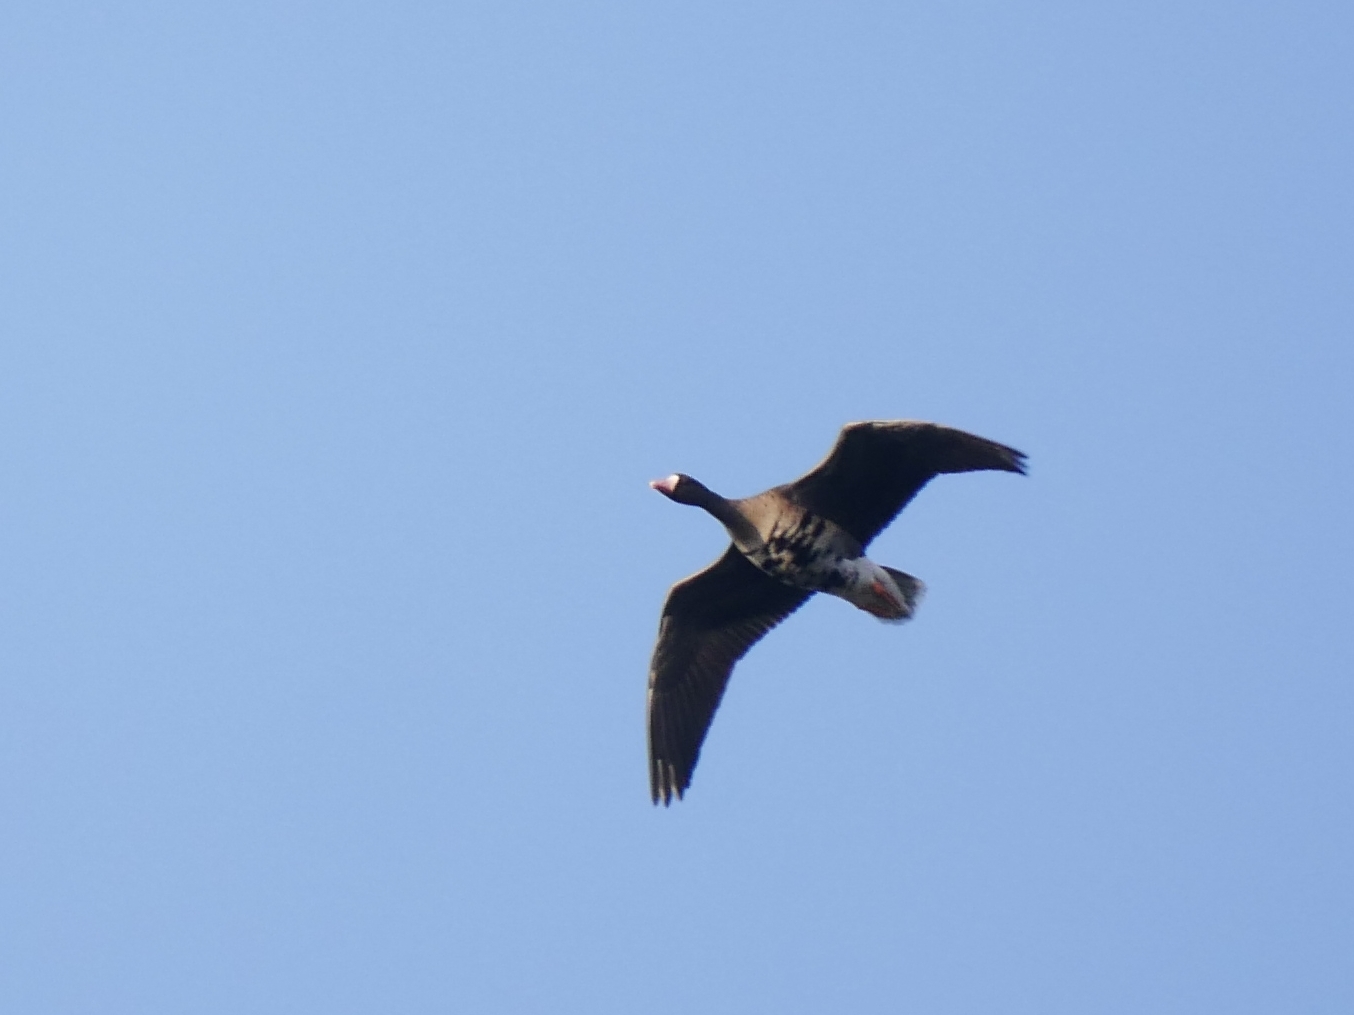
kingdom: Animalia
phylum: Chordata
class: Aves
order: Anseriformes
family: Anatidae
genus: Anser
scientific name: Anser albifrons
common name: Greater white-fronted goose
